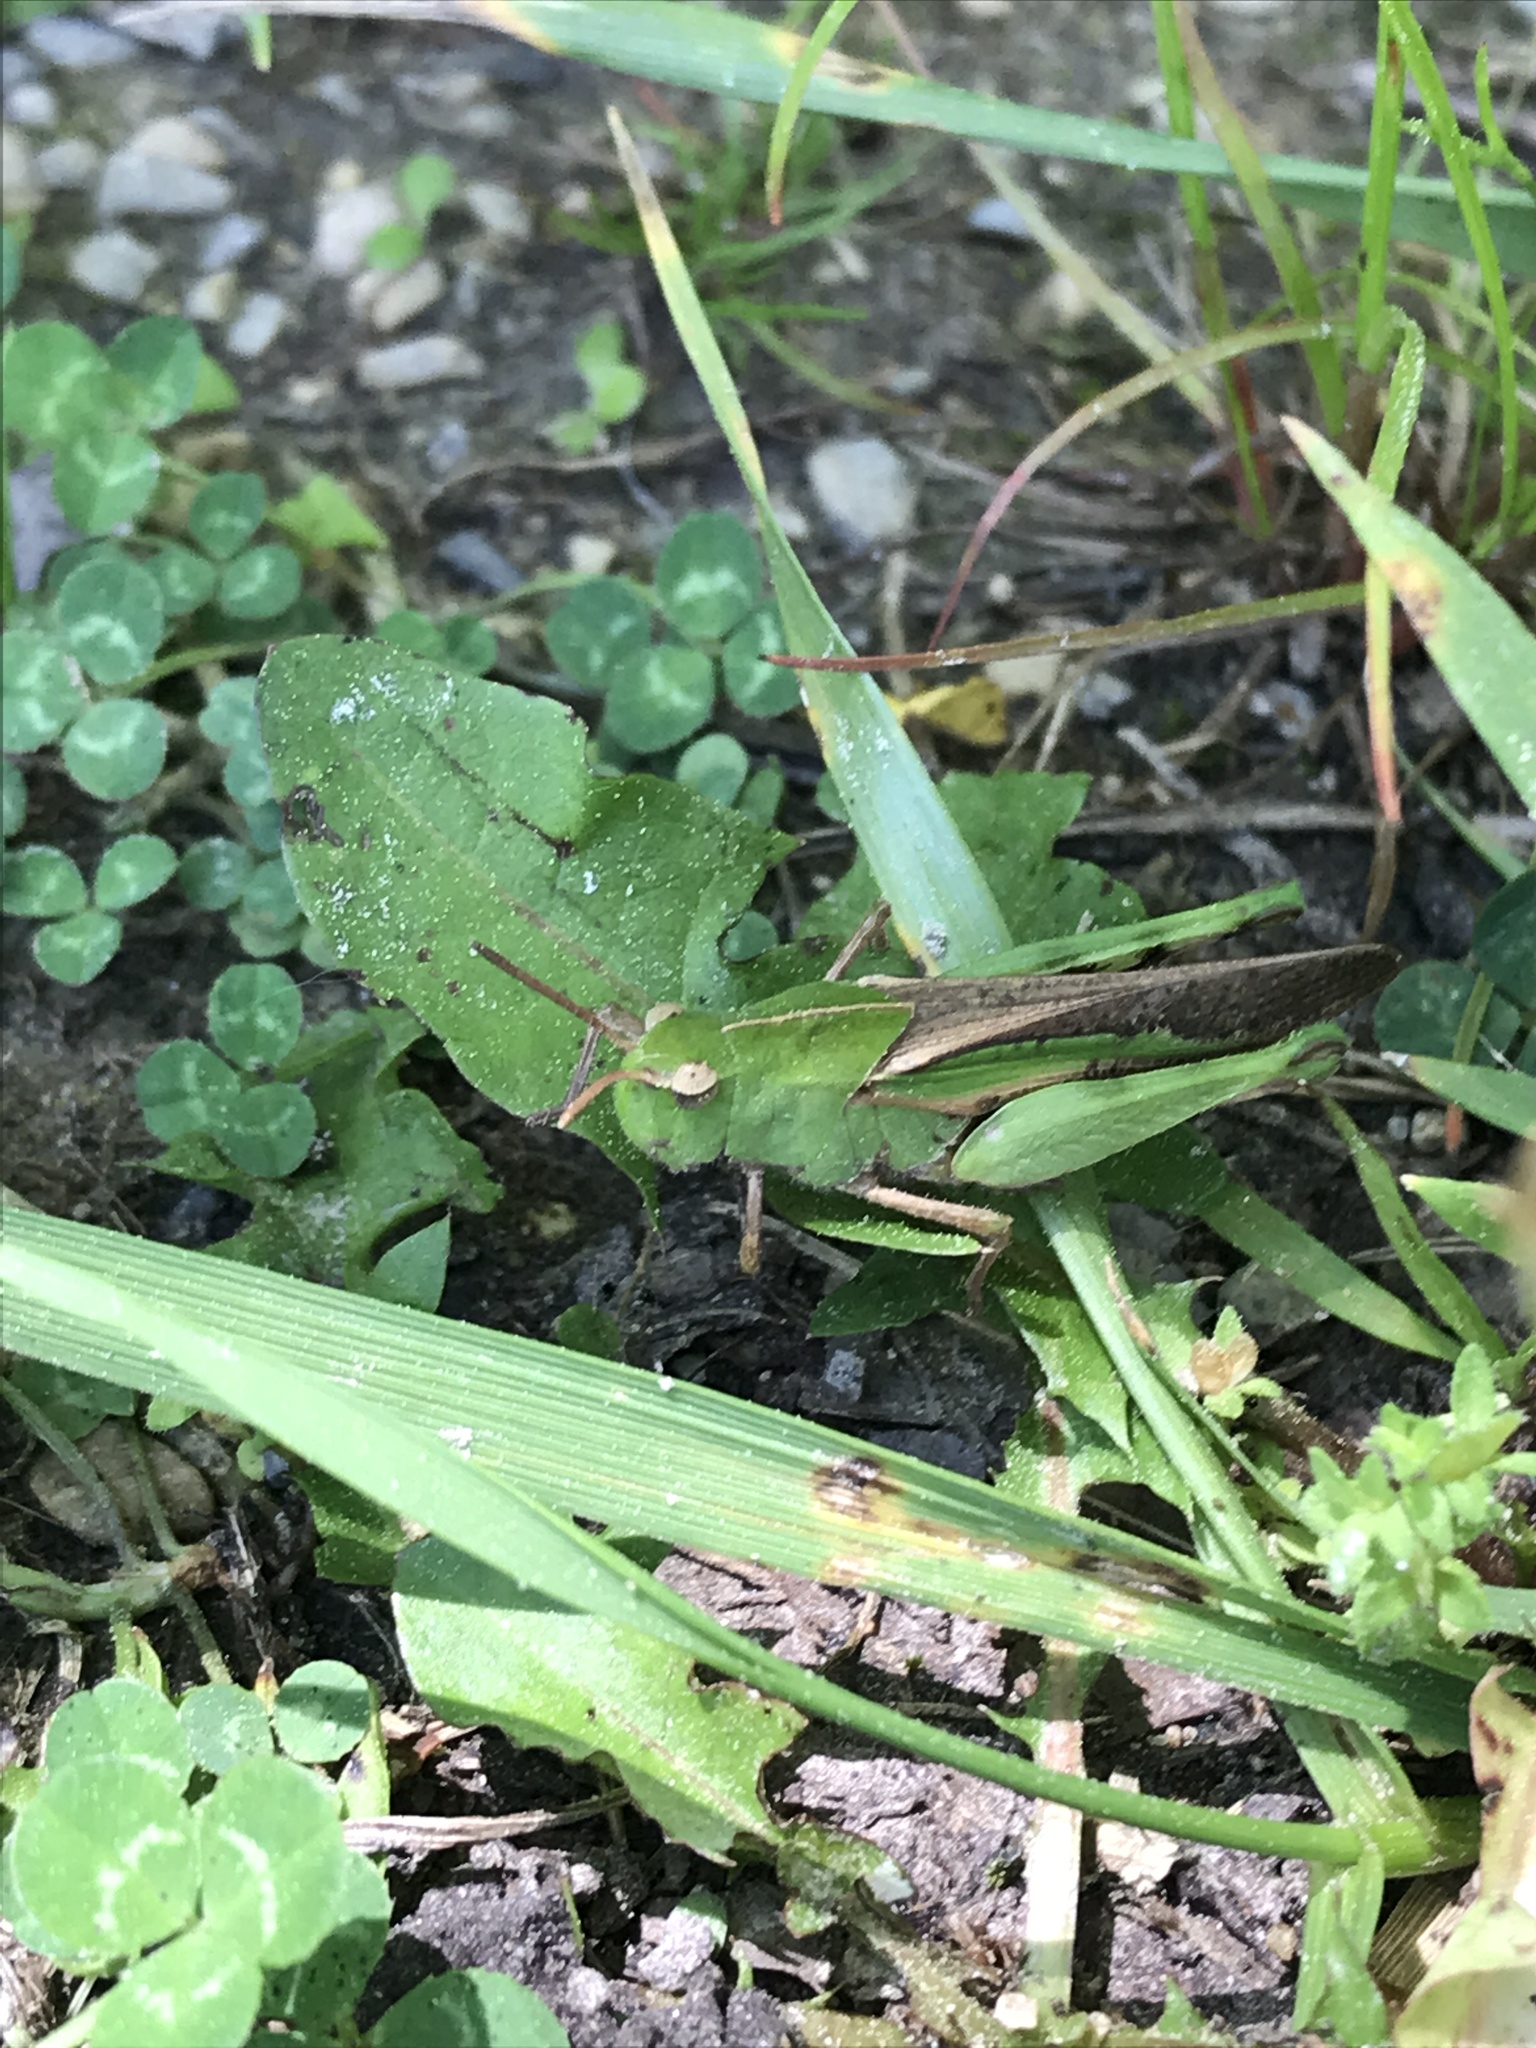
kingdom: Animalia
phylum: Arthropoda
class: Insecta
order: Orthoptera
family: Acrididae
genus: Chortophaga
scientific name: Chortophaga viridifasciata
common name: Green-striped grasshopper
